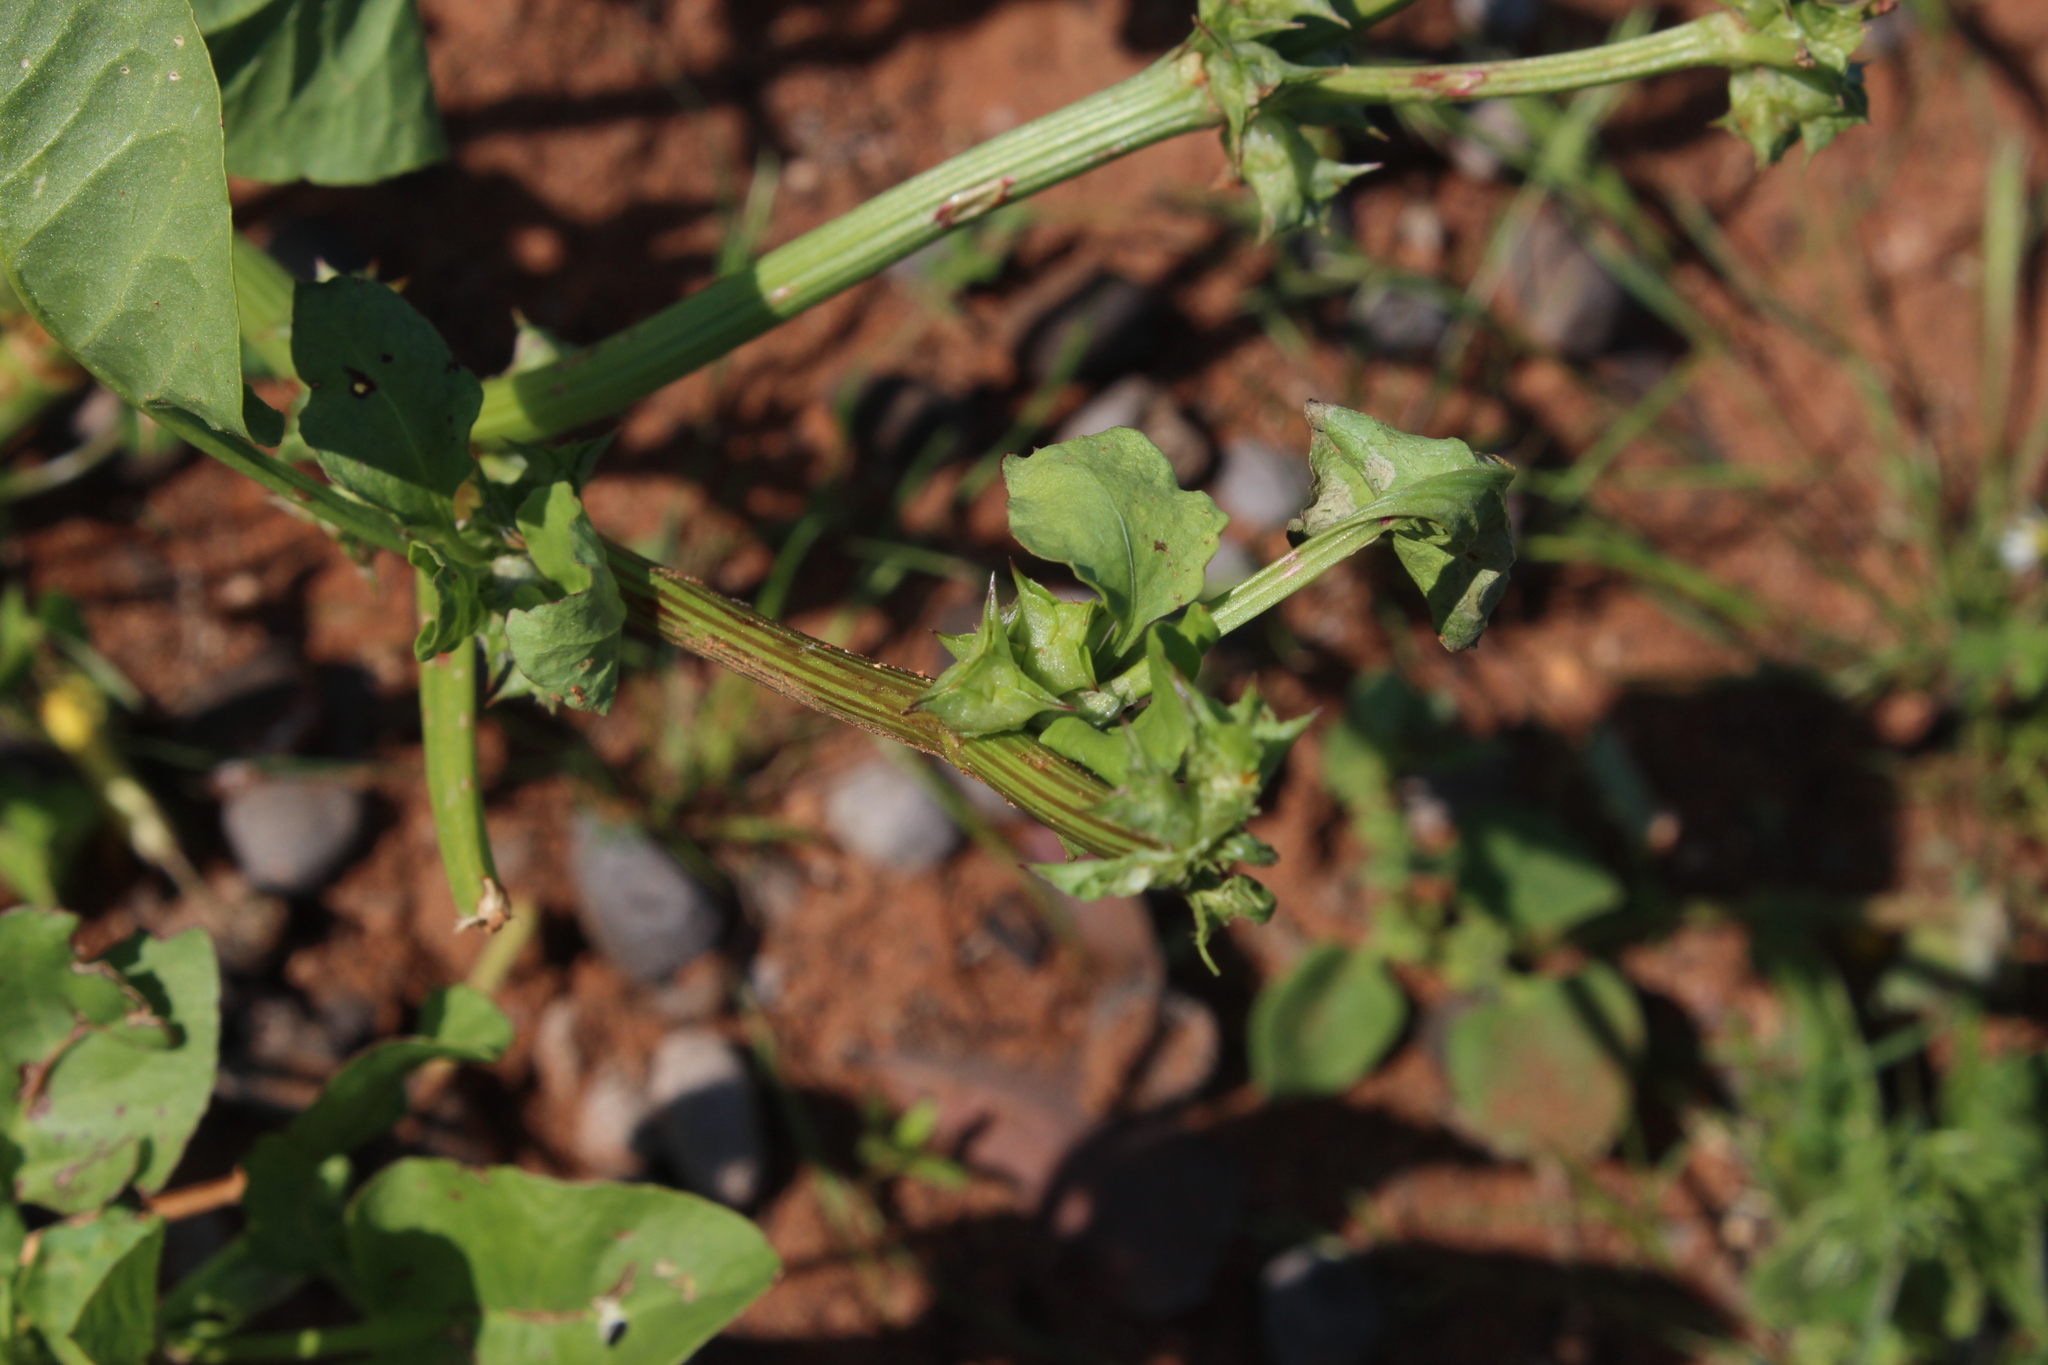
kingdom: Plantae
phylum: Tracheophyta
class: Magnoliopsida
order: Caryophyllales
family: Polygonaceae
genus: Rumex
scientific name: Rumex hypogaeus
